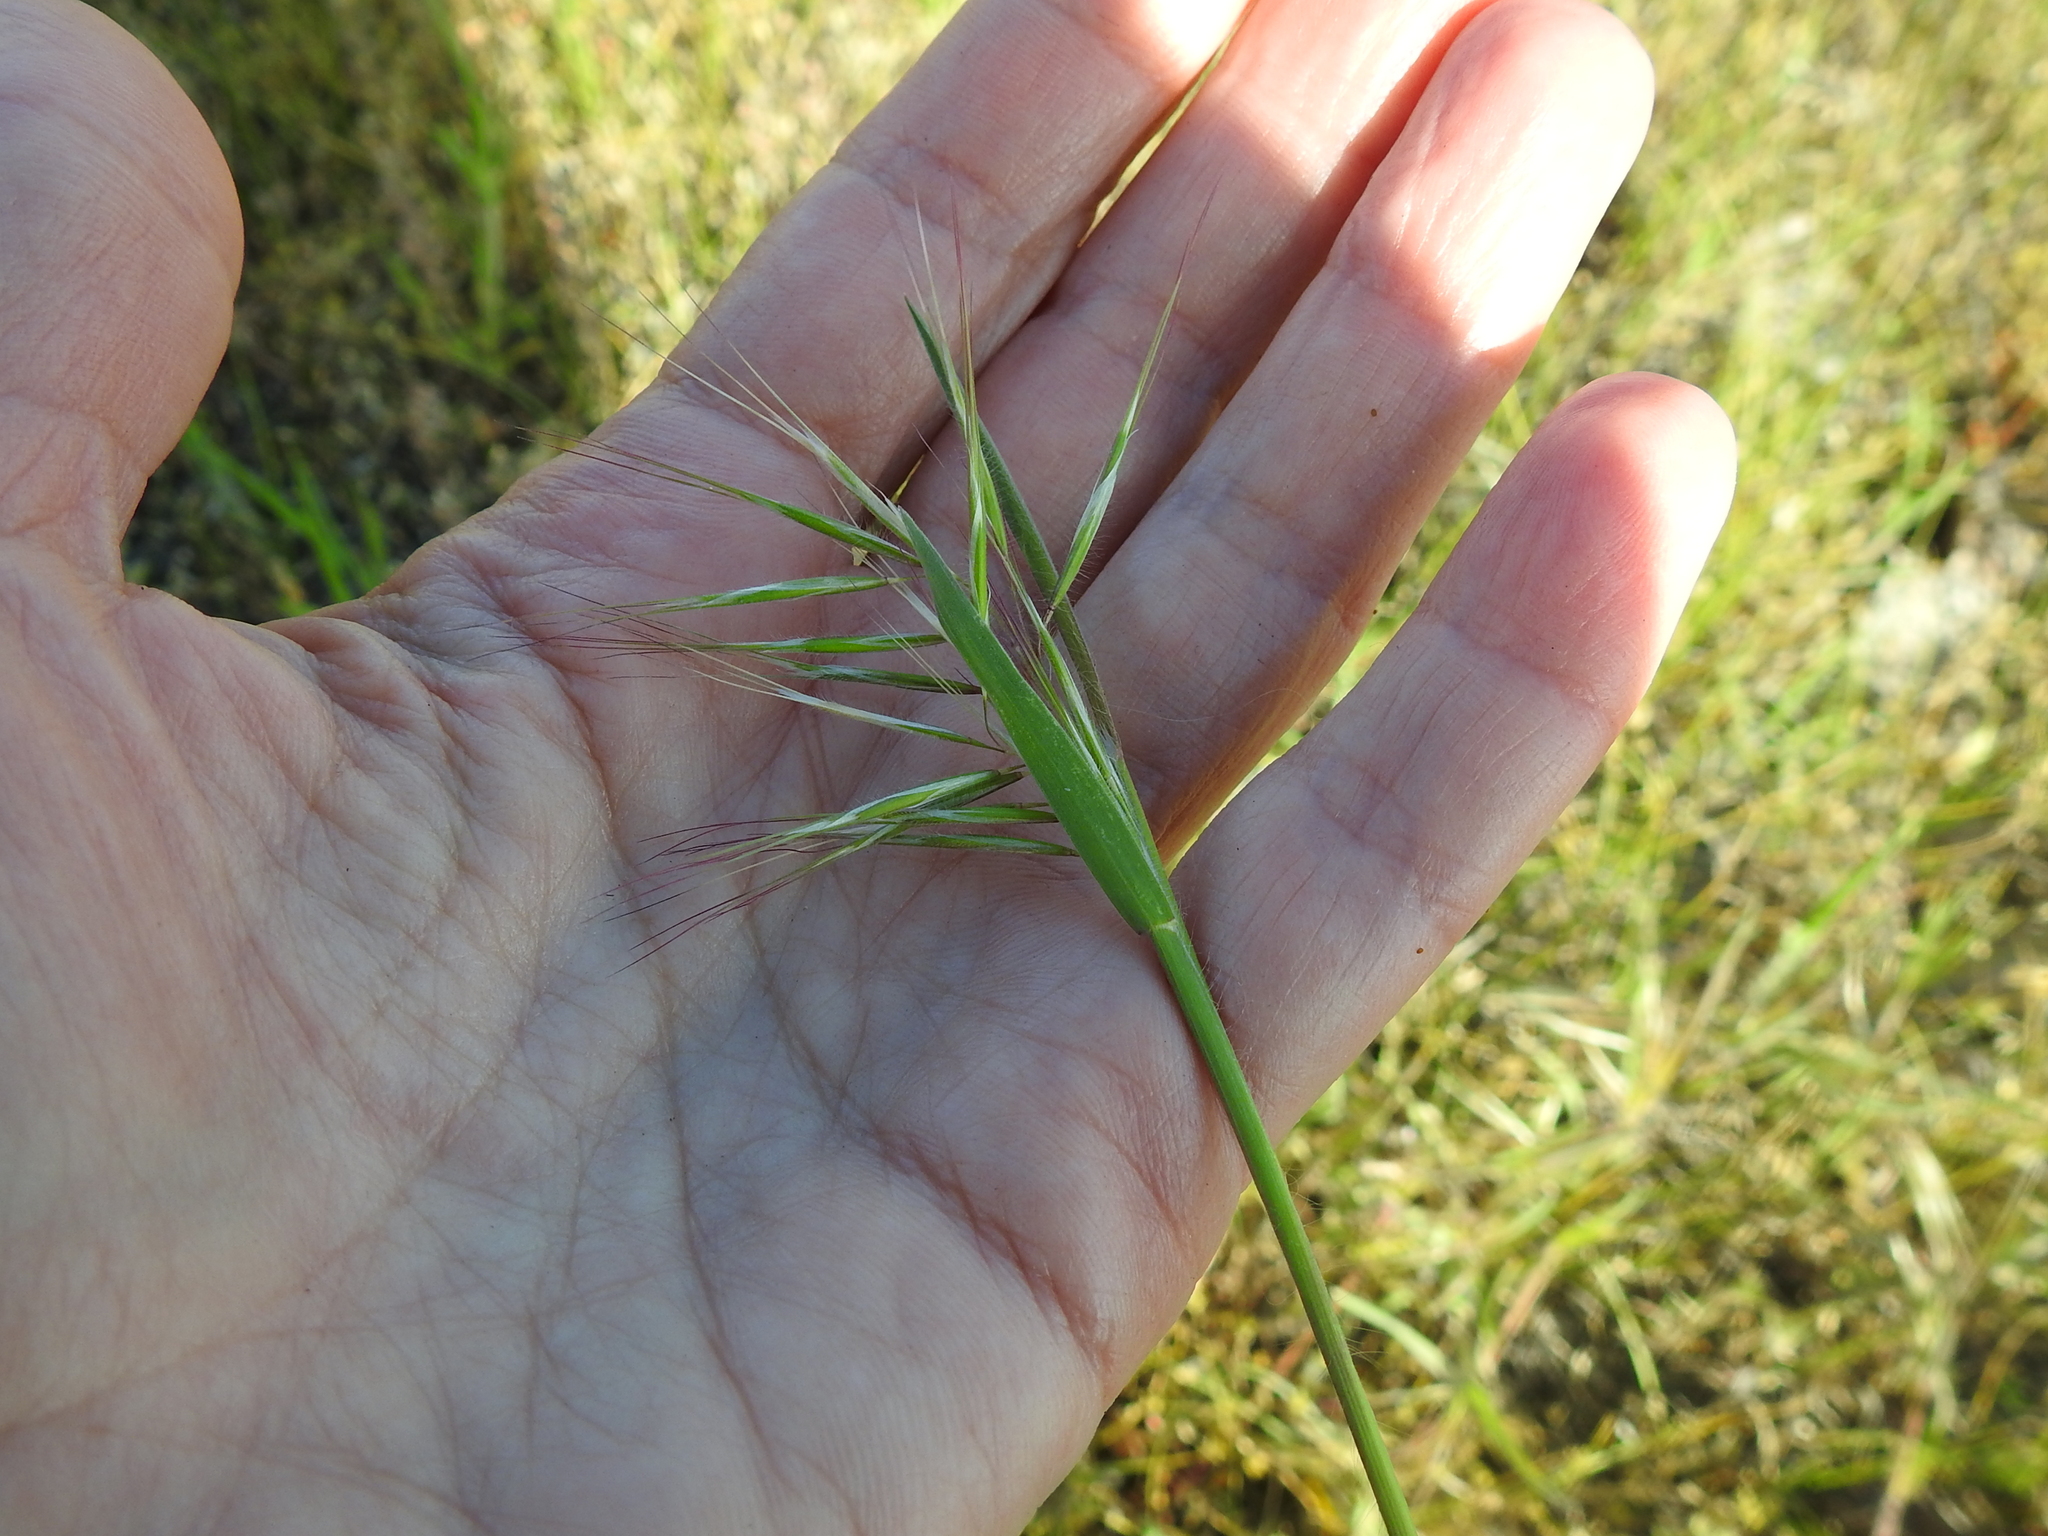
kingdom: Plantae
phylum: Tracheophyta
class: Liliopsida
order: Poales
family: Poaceae
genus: Bromus
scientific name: Bromus tectorum
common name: Cheatgrass
